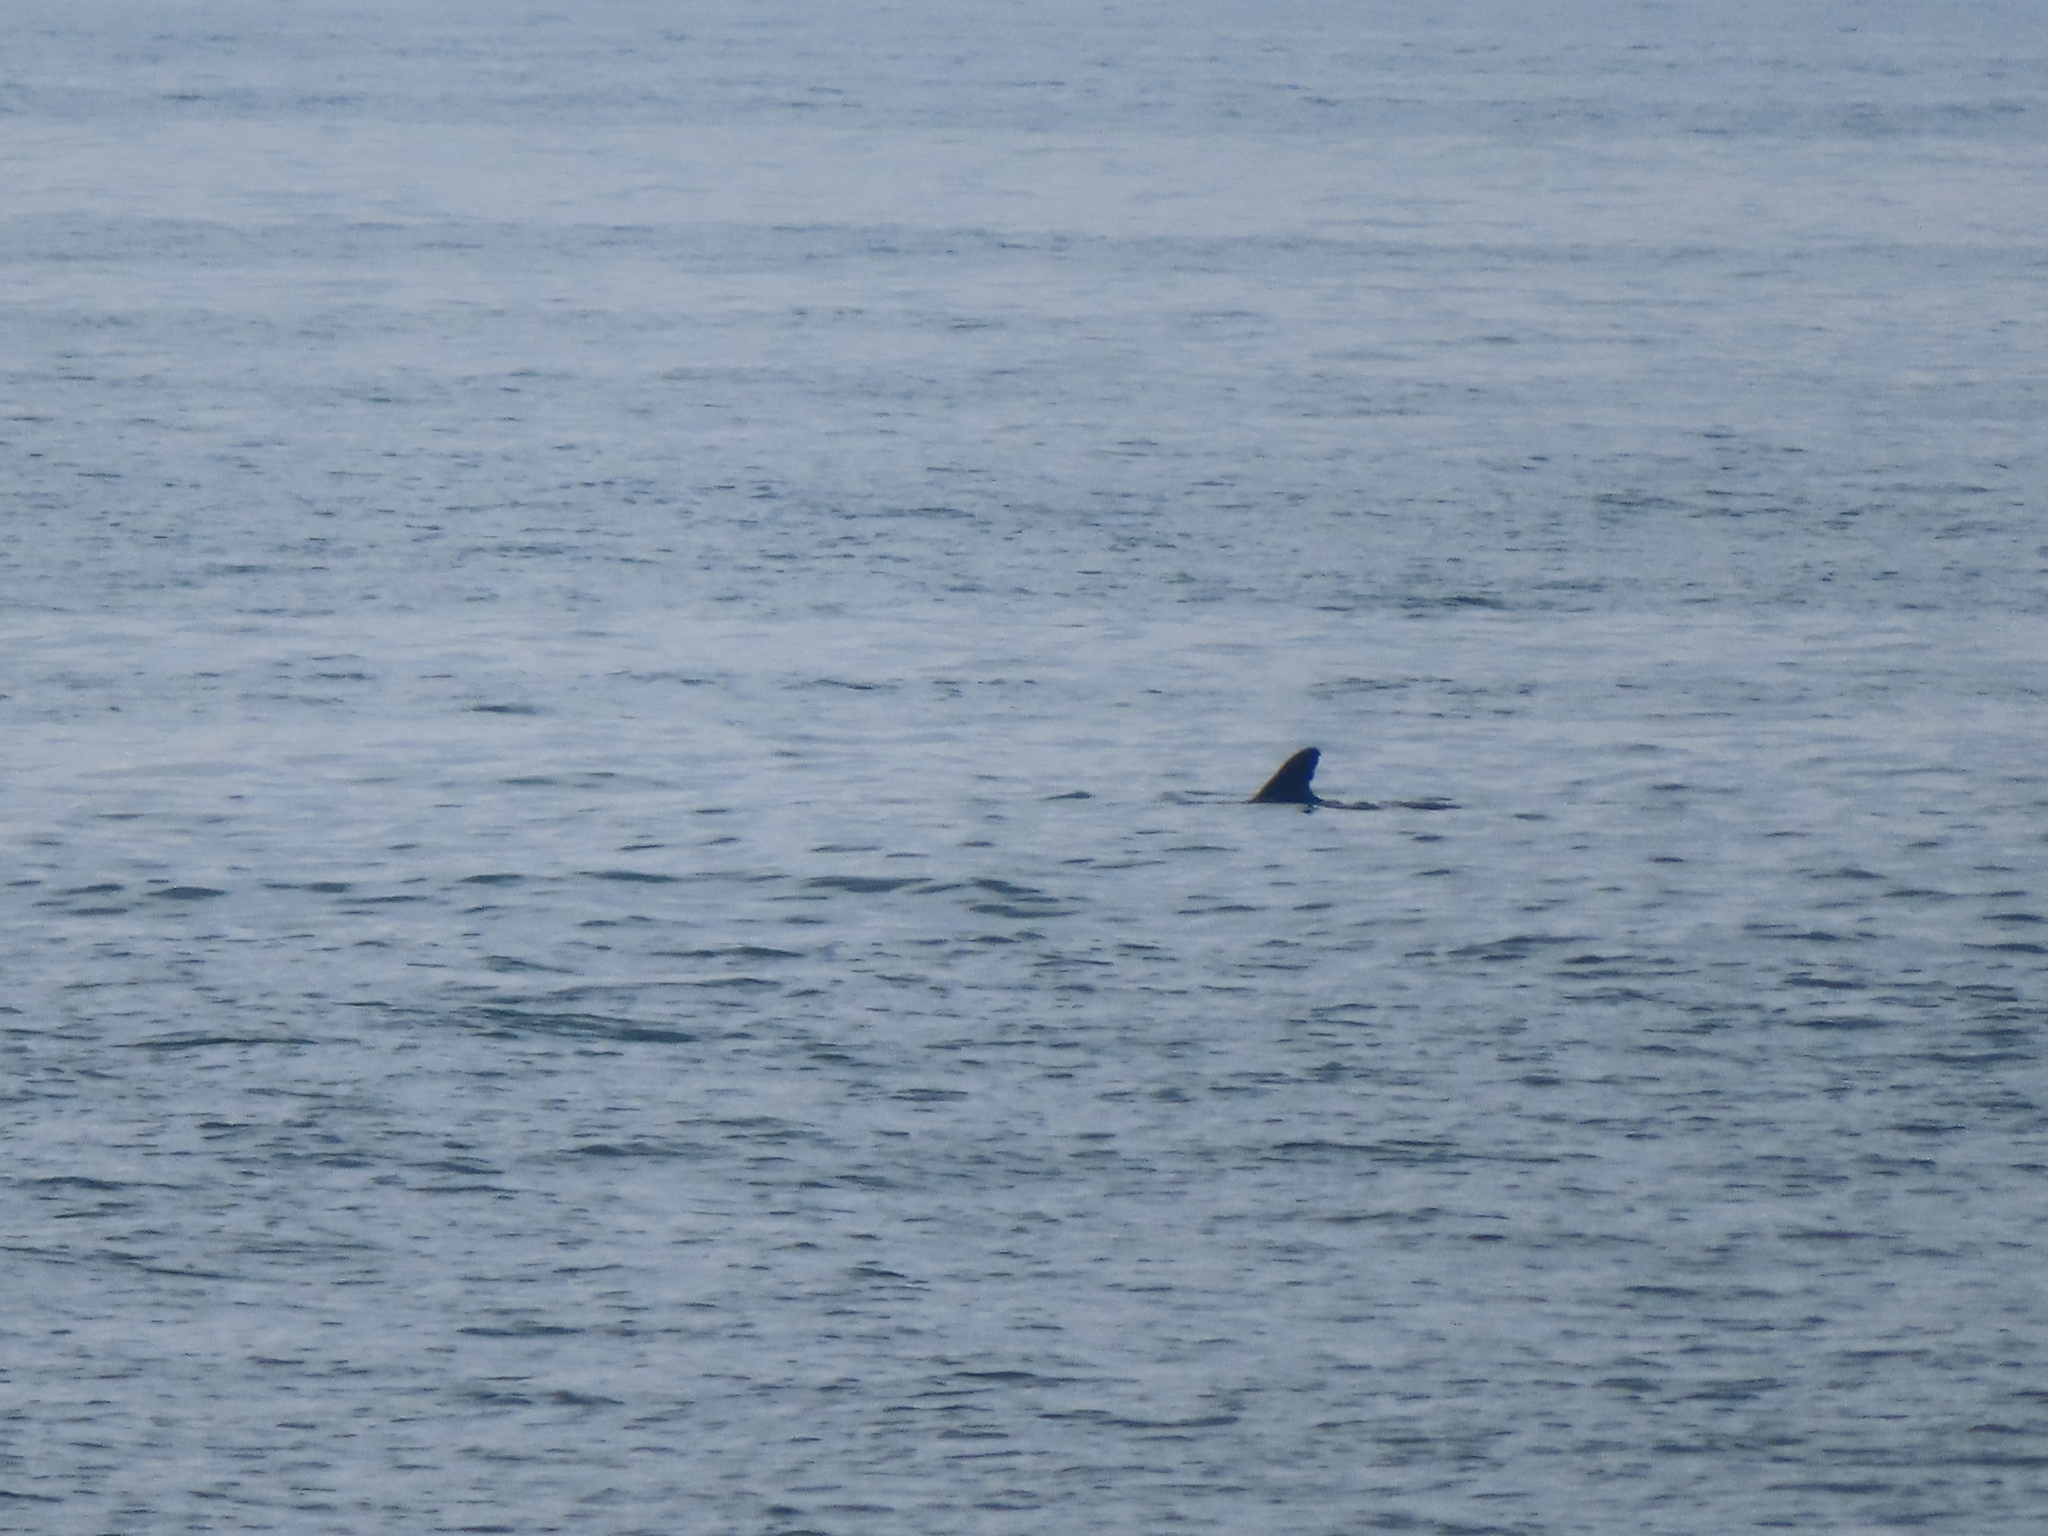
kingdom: Animalia
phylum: Chordata
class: Mammalia
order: Cetacea
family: Delphinidae
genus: Tursiops
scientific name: Tursiops truncatus
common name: Bottlenose dolphin
